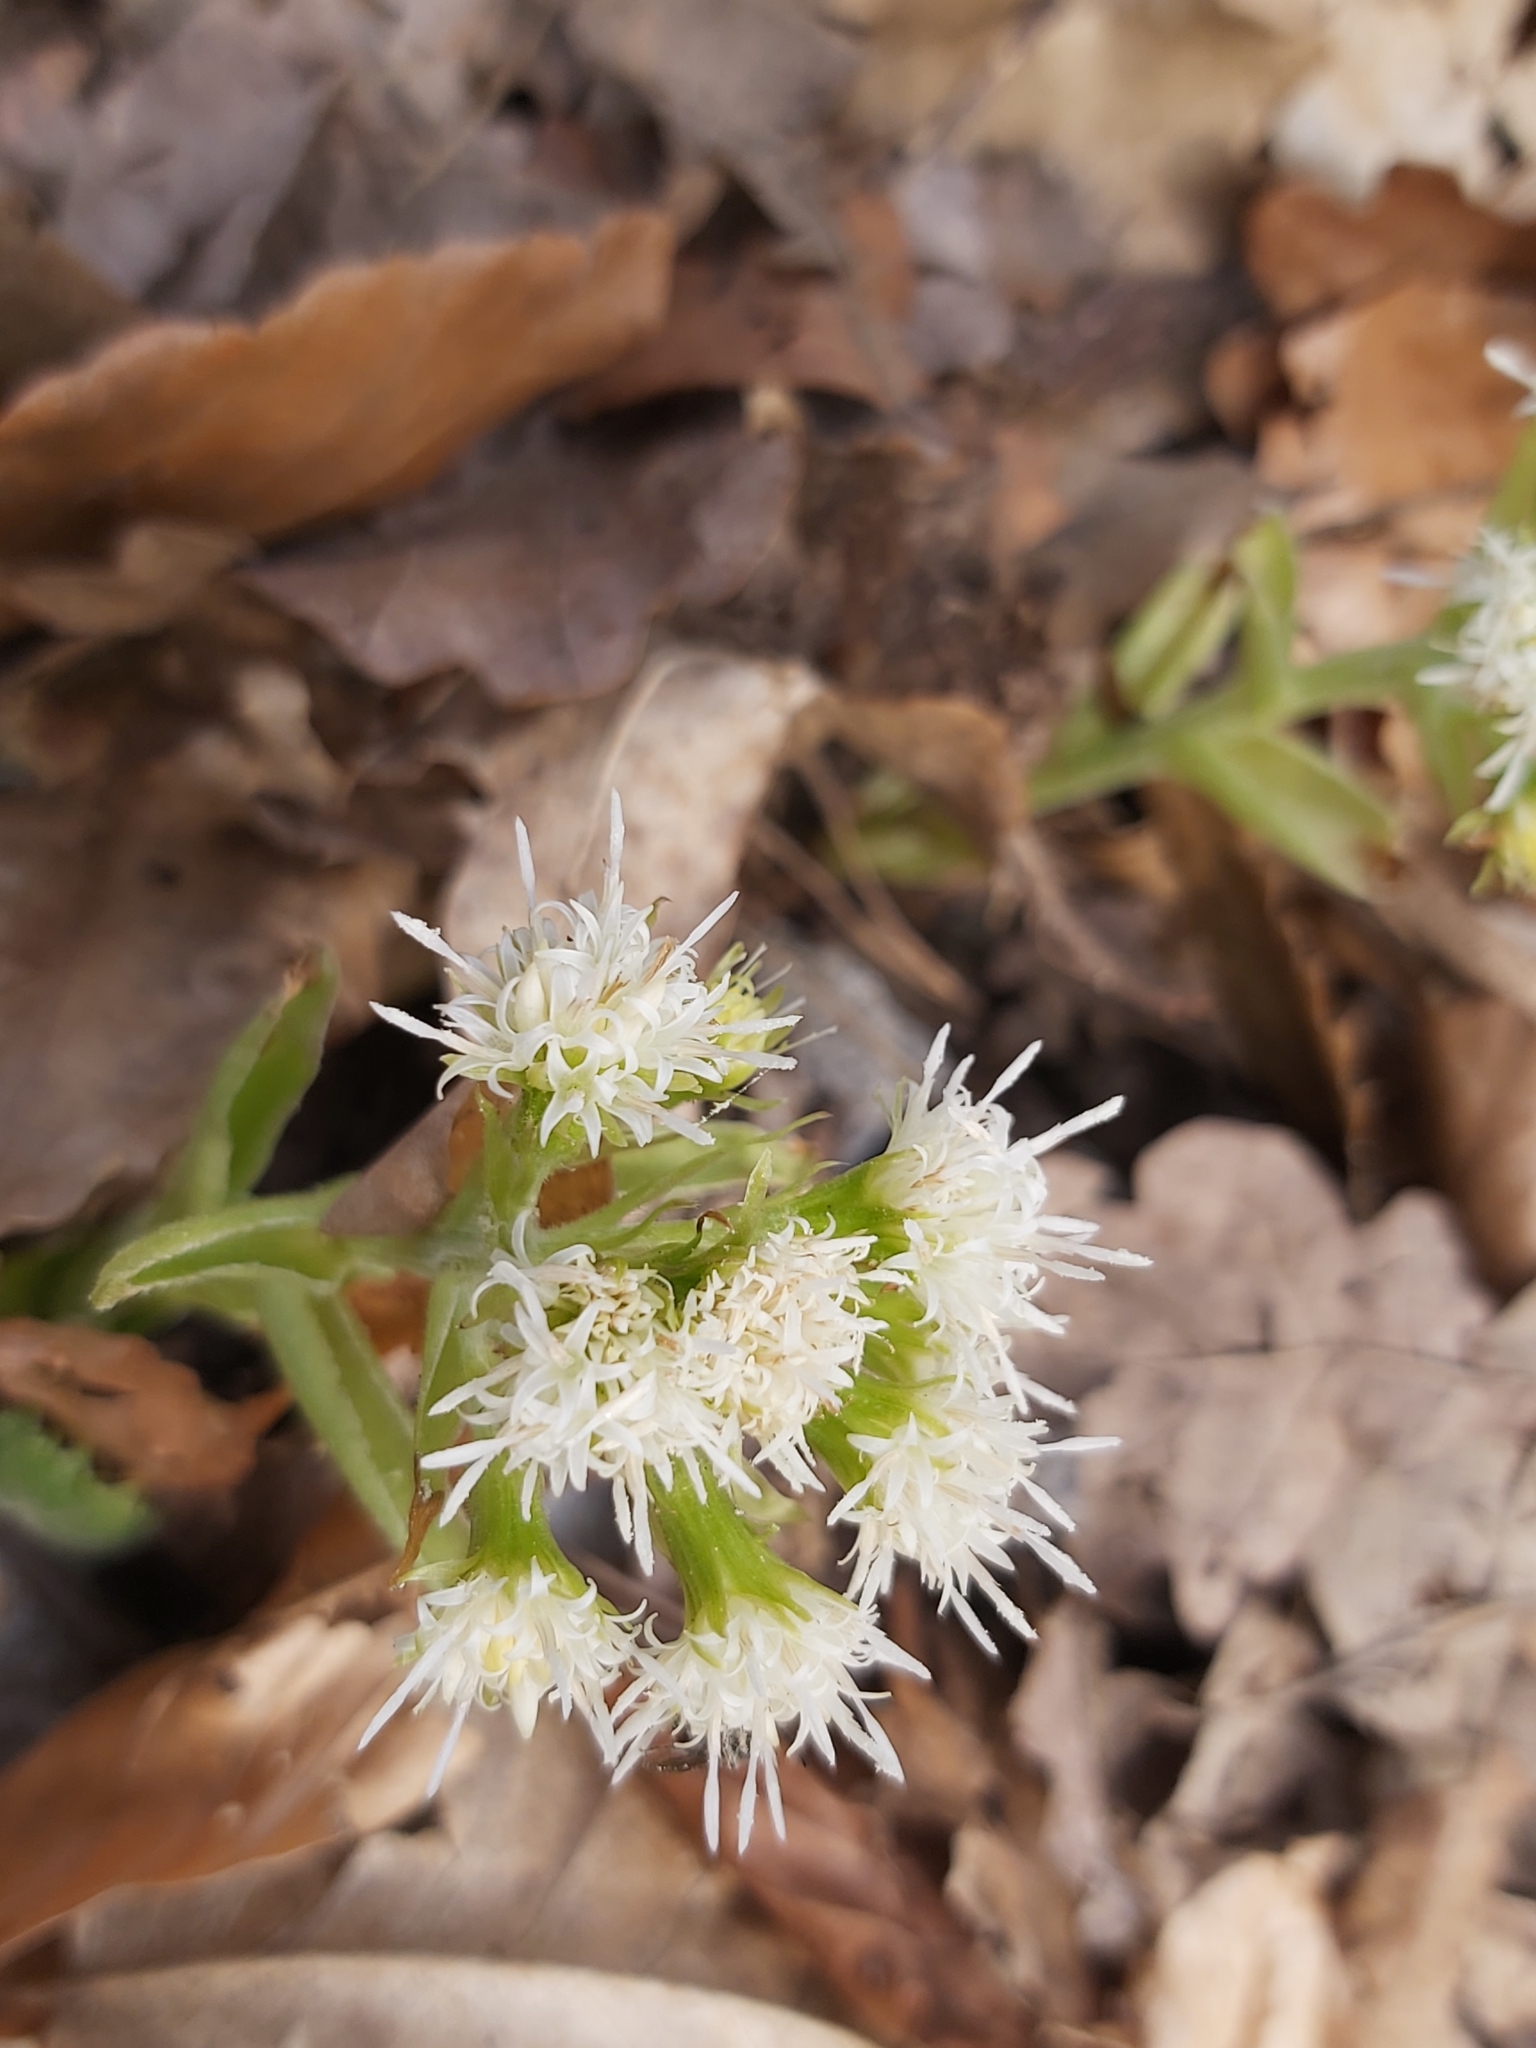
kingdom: Plantae
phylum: Tracheophyta
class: Magnoliopsida
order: Asterales
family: Asteraceae
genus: Petasites
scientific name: Petasites albus
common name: White butterbur
